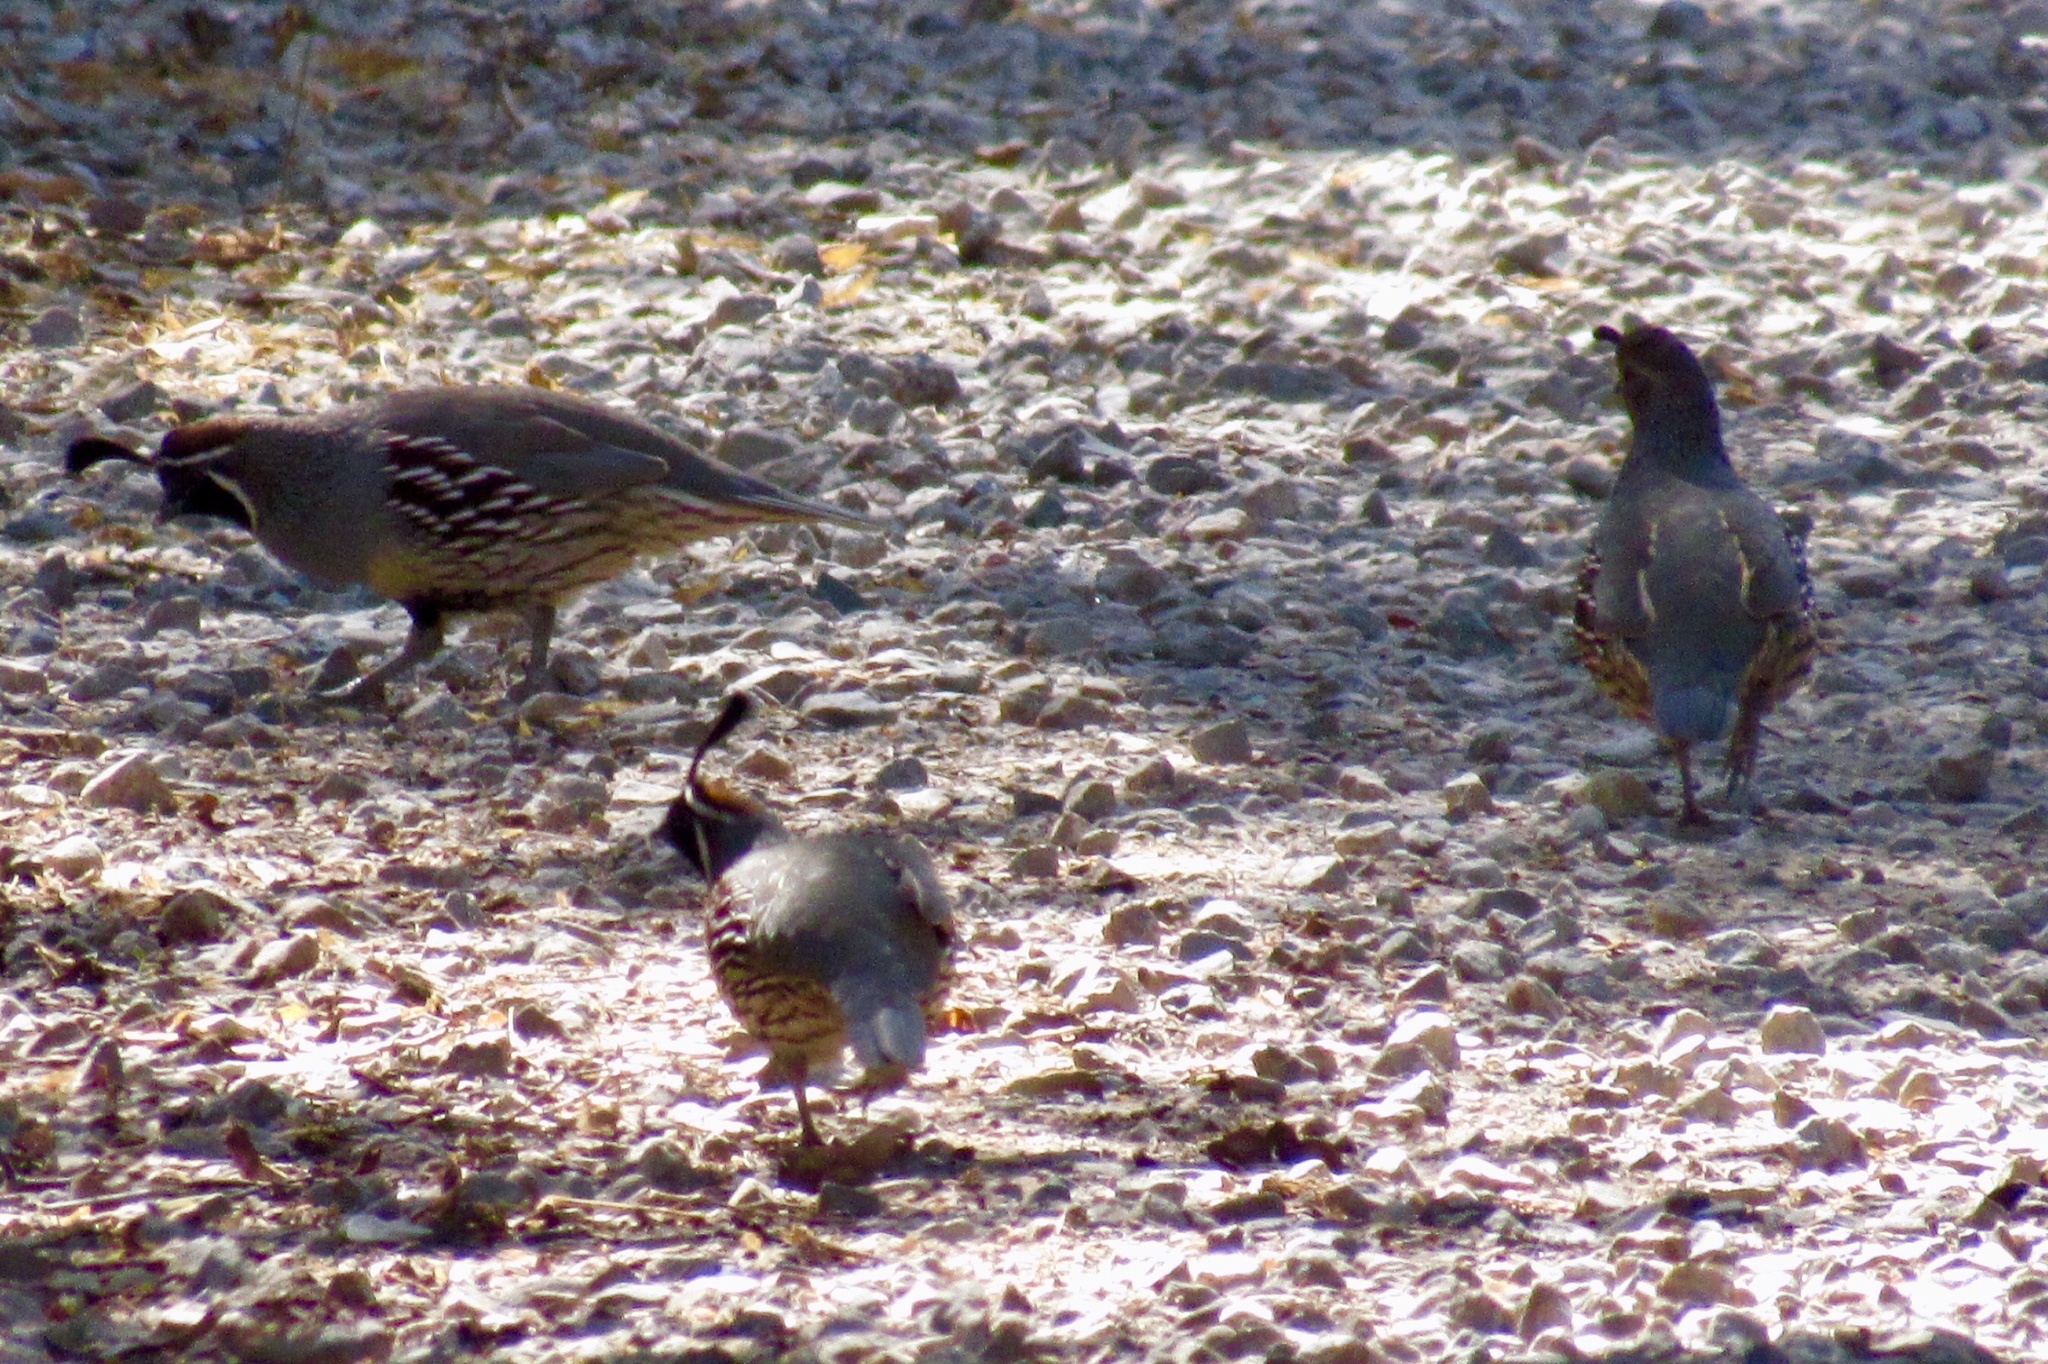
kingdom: Animalia
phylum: Chordata
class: Aves
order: Galliformes
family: Odontophoridae
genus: Callipepla
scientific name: Callipepla gambelii
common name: Gambel's quail
